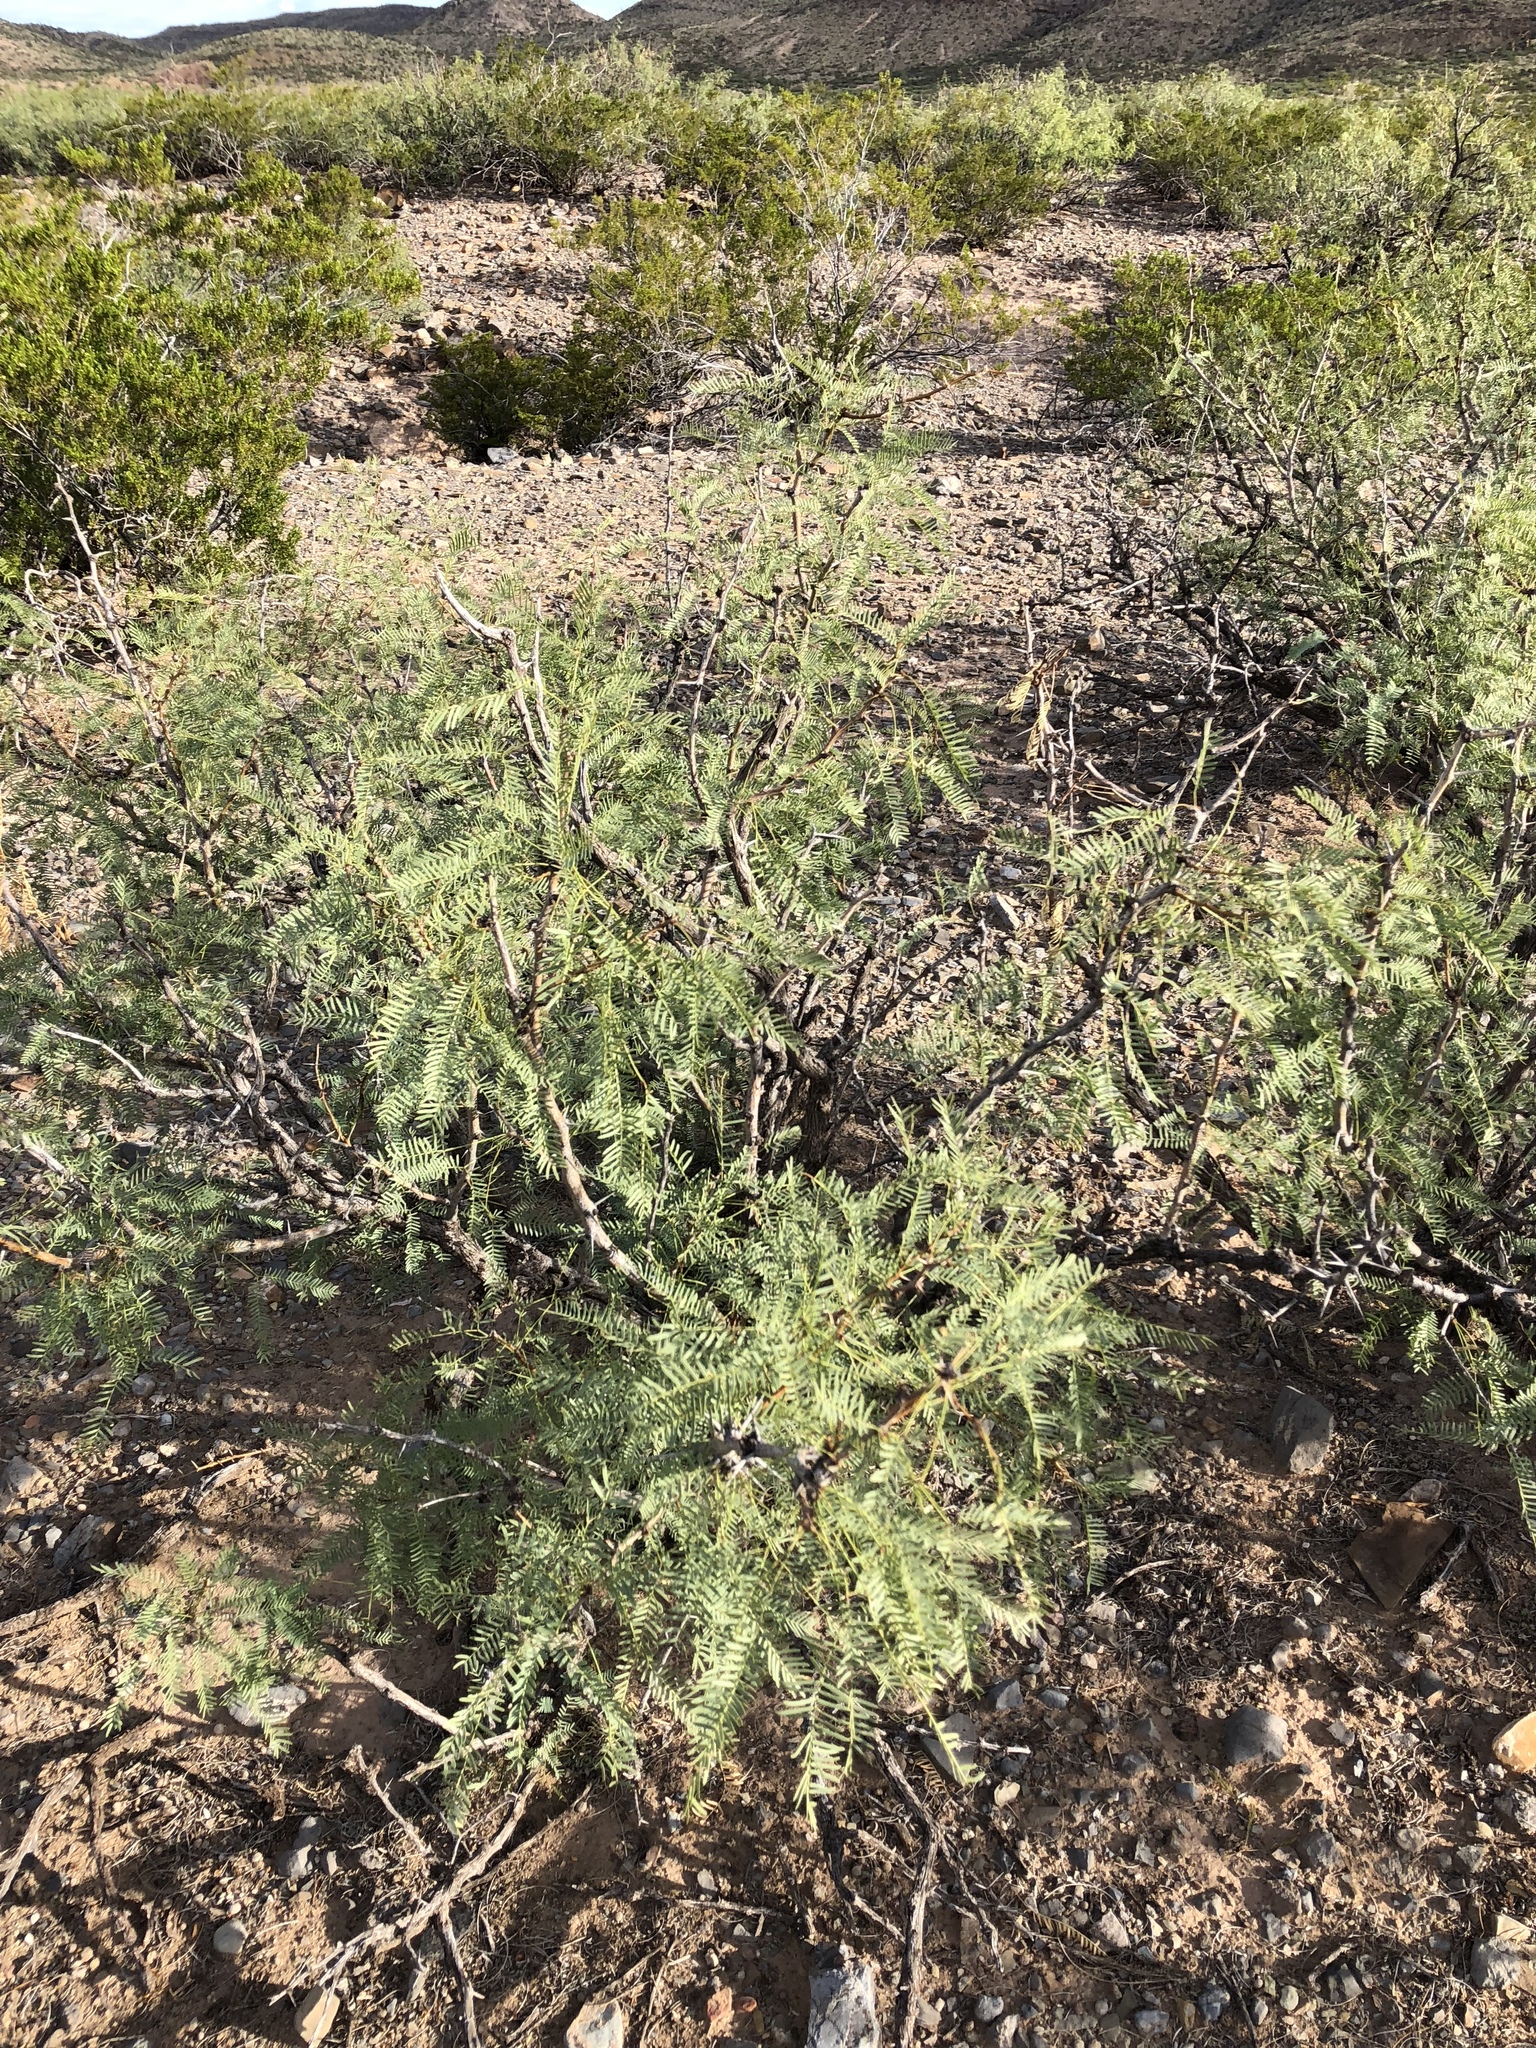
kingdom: Plantae
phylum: Tracheophyta
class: Magnoliopsida
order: Fabales
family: Fabaceae
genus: Prosopis
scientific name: Prosopis glandulosa
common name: Honey mesquite
